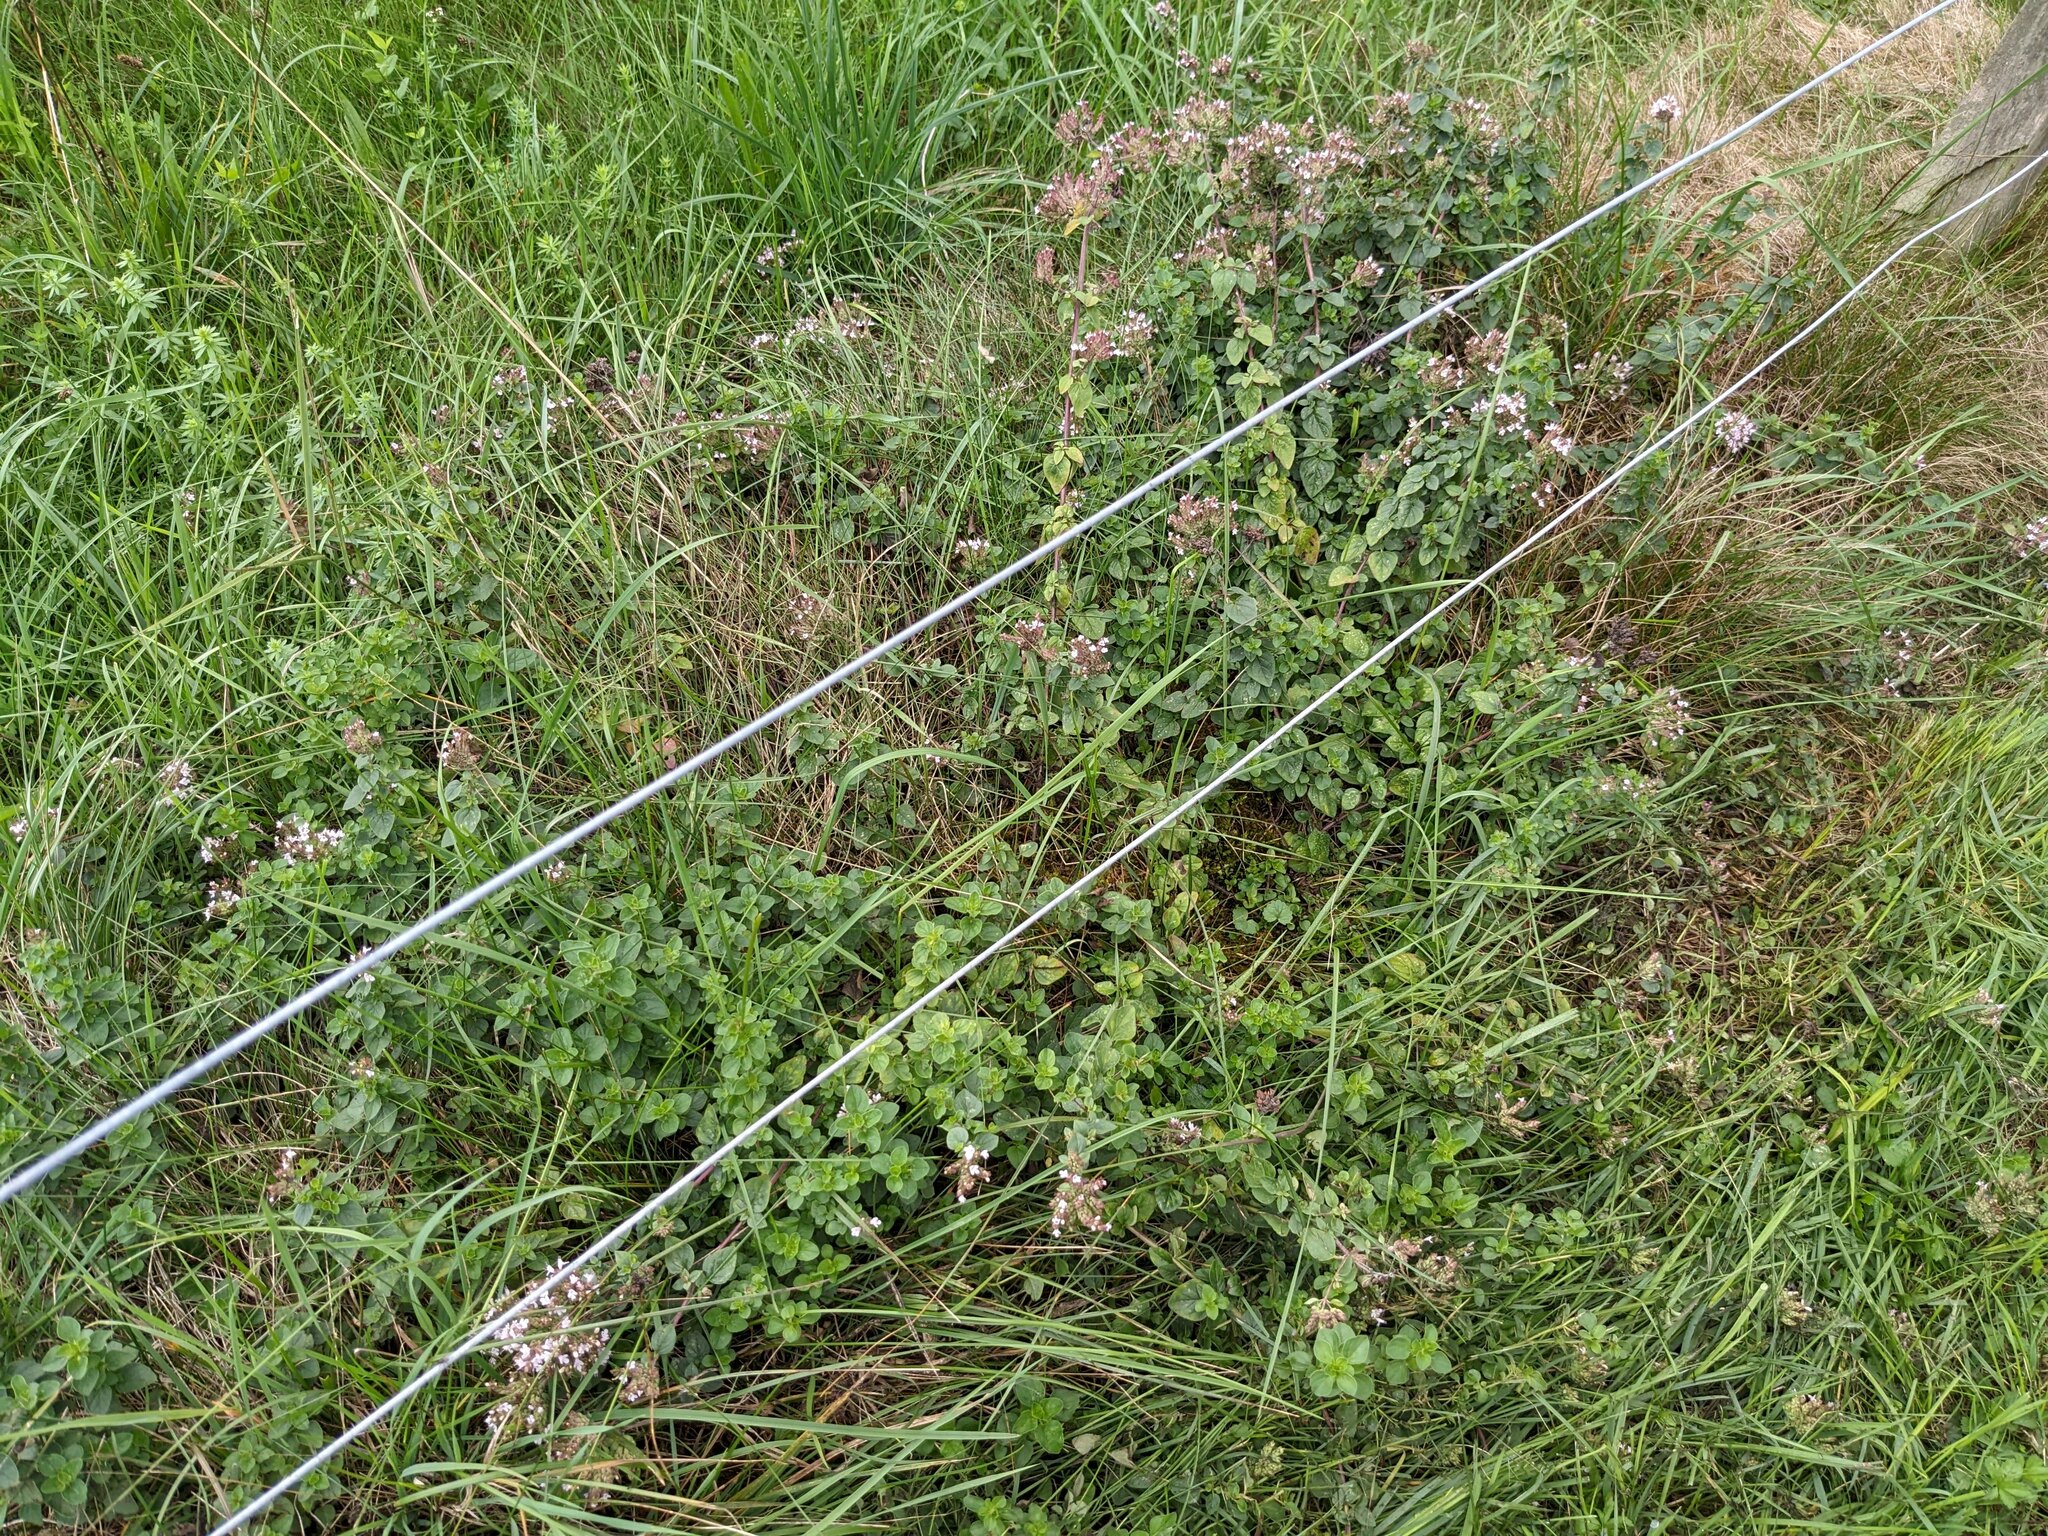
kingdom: Plantae
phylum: Tracheophyta
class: Magnoliopsida
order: Lamiales
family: Lamiaceae
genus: Origanum
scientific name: Origanum vulgare
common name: Wild marjoram
